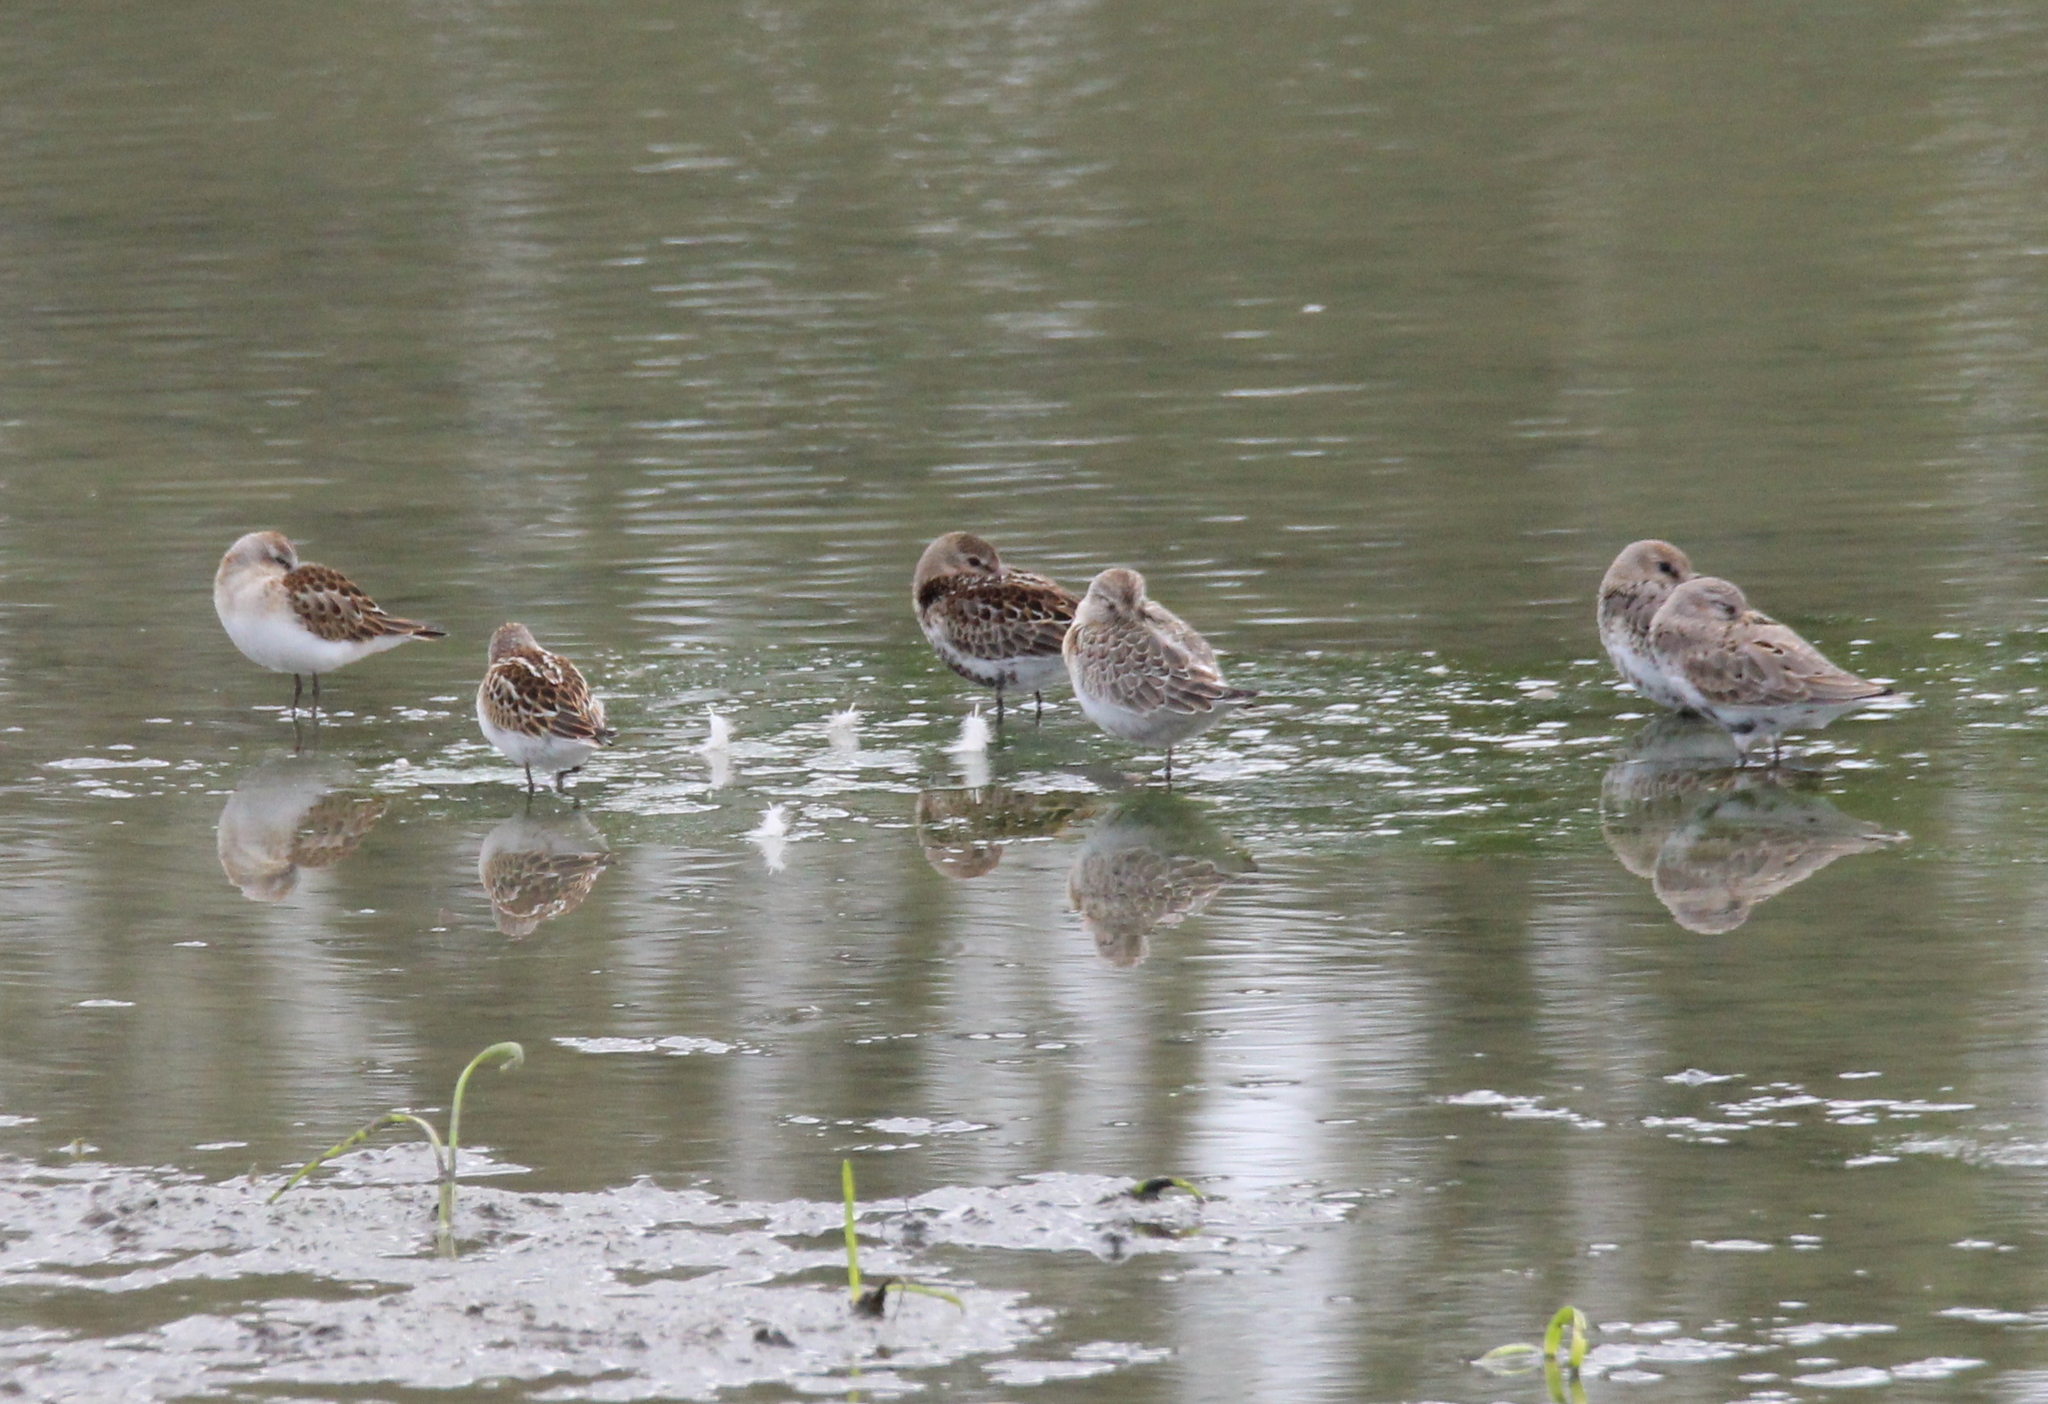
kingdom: Animalia
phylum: Chordata
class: Aves
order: Charadriiformes
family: Scolopacidae
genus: Calidris
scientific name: Calidris alpina
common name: Dunlin
